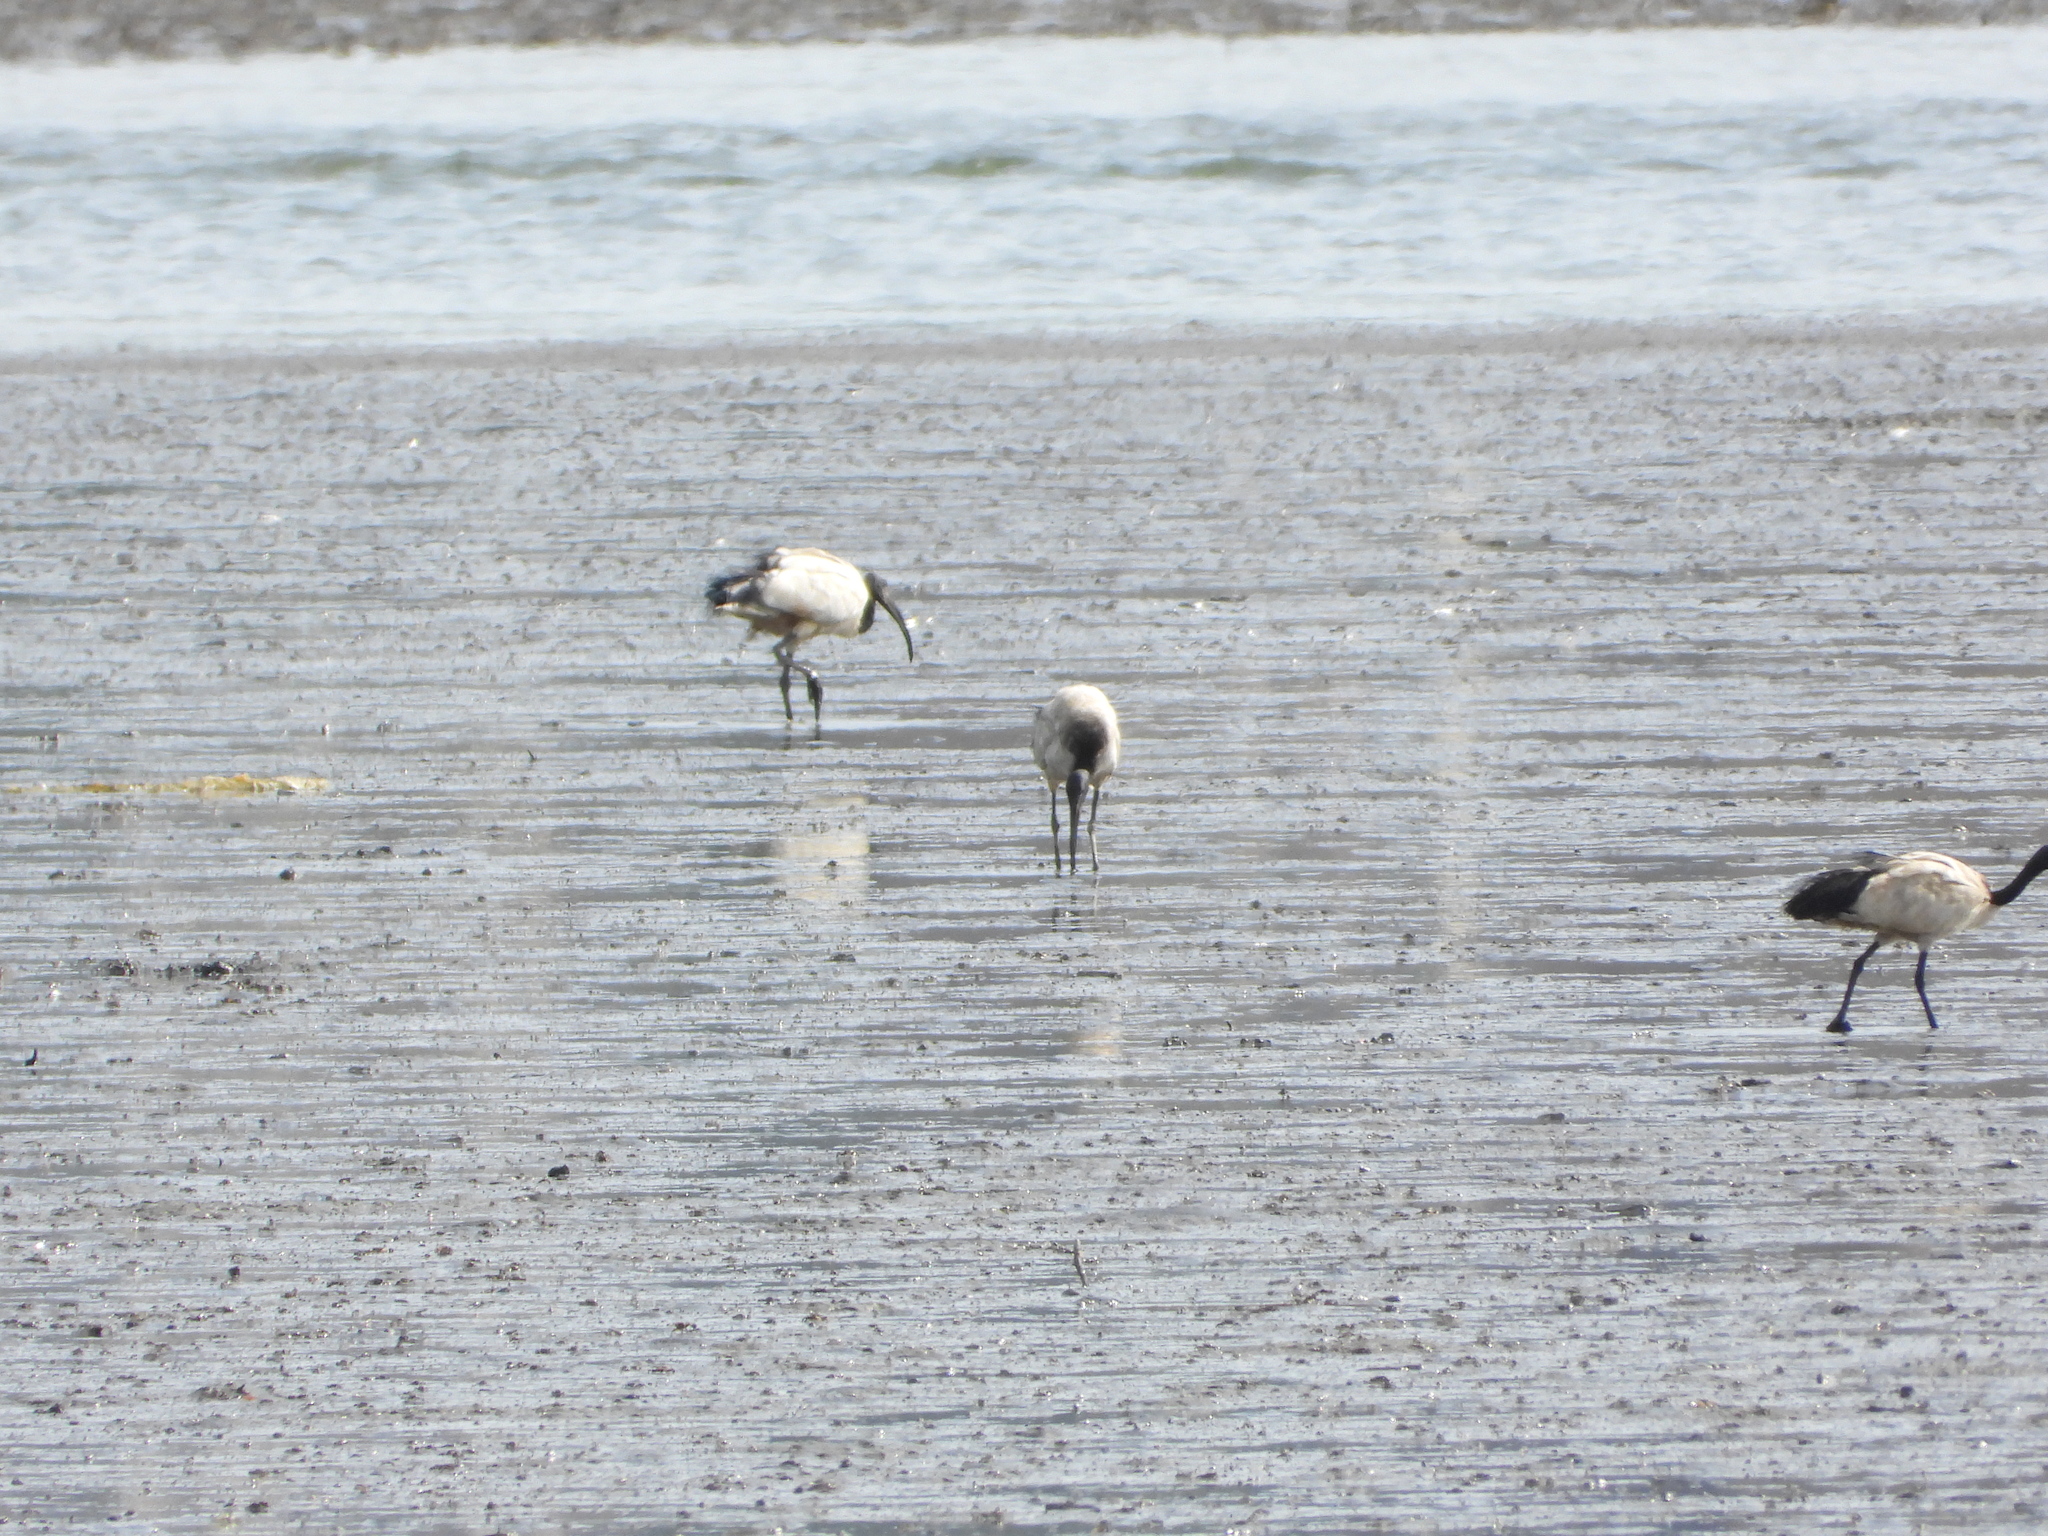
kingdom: Animalia
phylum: Chordata
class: Aves
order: Pelecaniformes
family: Threskiornithidae
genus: Threskiornis
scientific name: Threskiornis aethiopicus
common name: Sacred ibis
